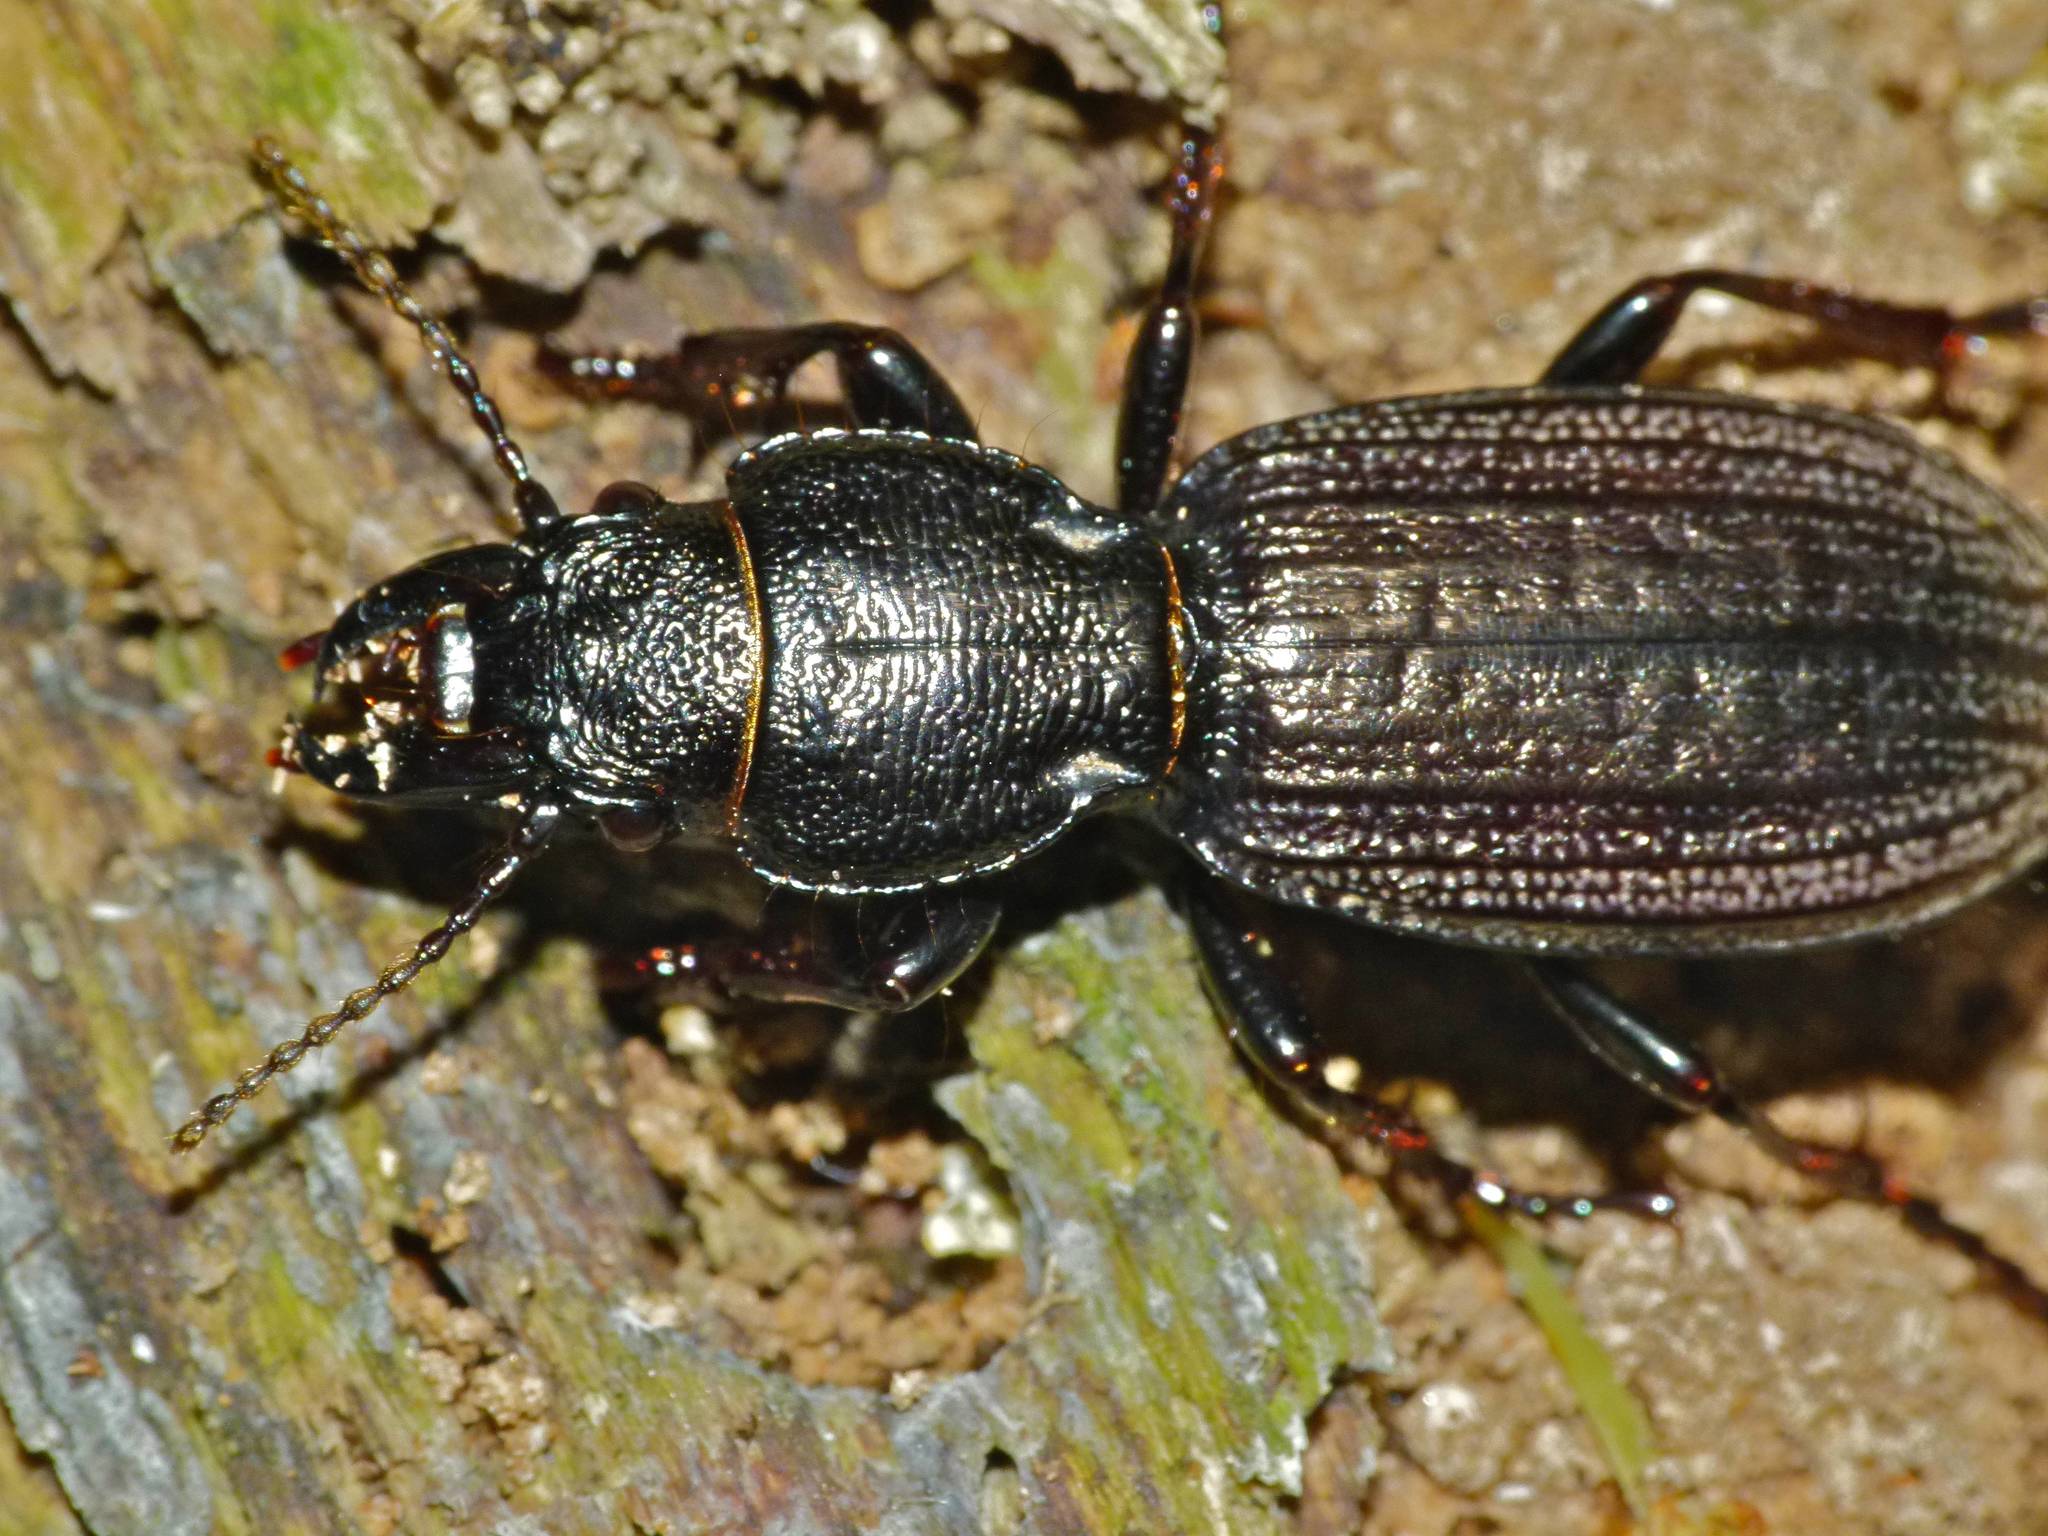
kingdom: Animalia
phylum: Arthropoda
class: Insecta
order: Coleoptera
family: Carabidae
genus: Mecodema
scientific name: Mecodema sculpturatum
